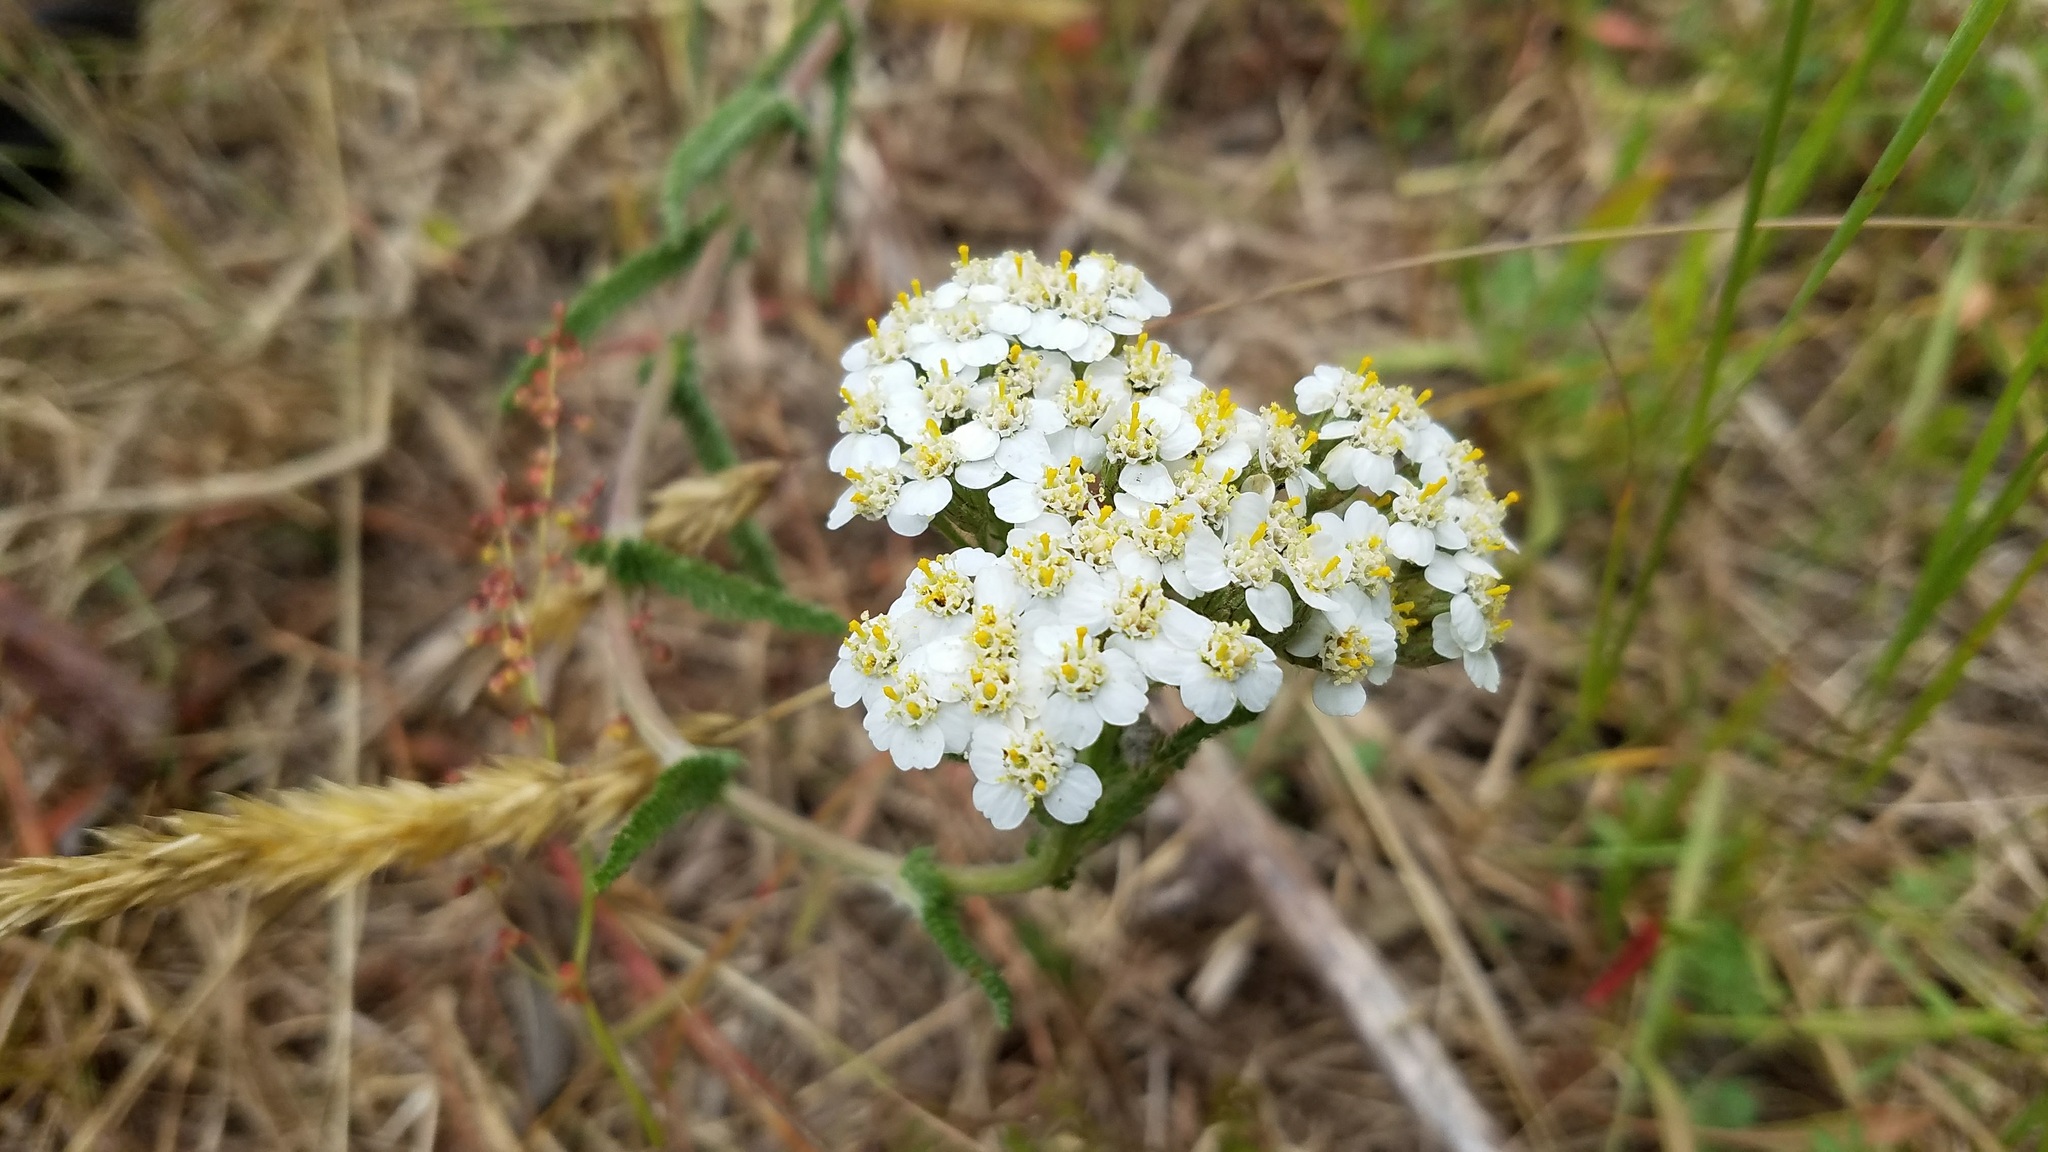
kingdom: Plantae
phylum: Tracheophyta
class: Magnoliopsida
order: Asterales
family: Asteraceae
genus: Achillea
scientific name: Achillea millefolium
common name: Yarrow
